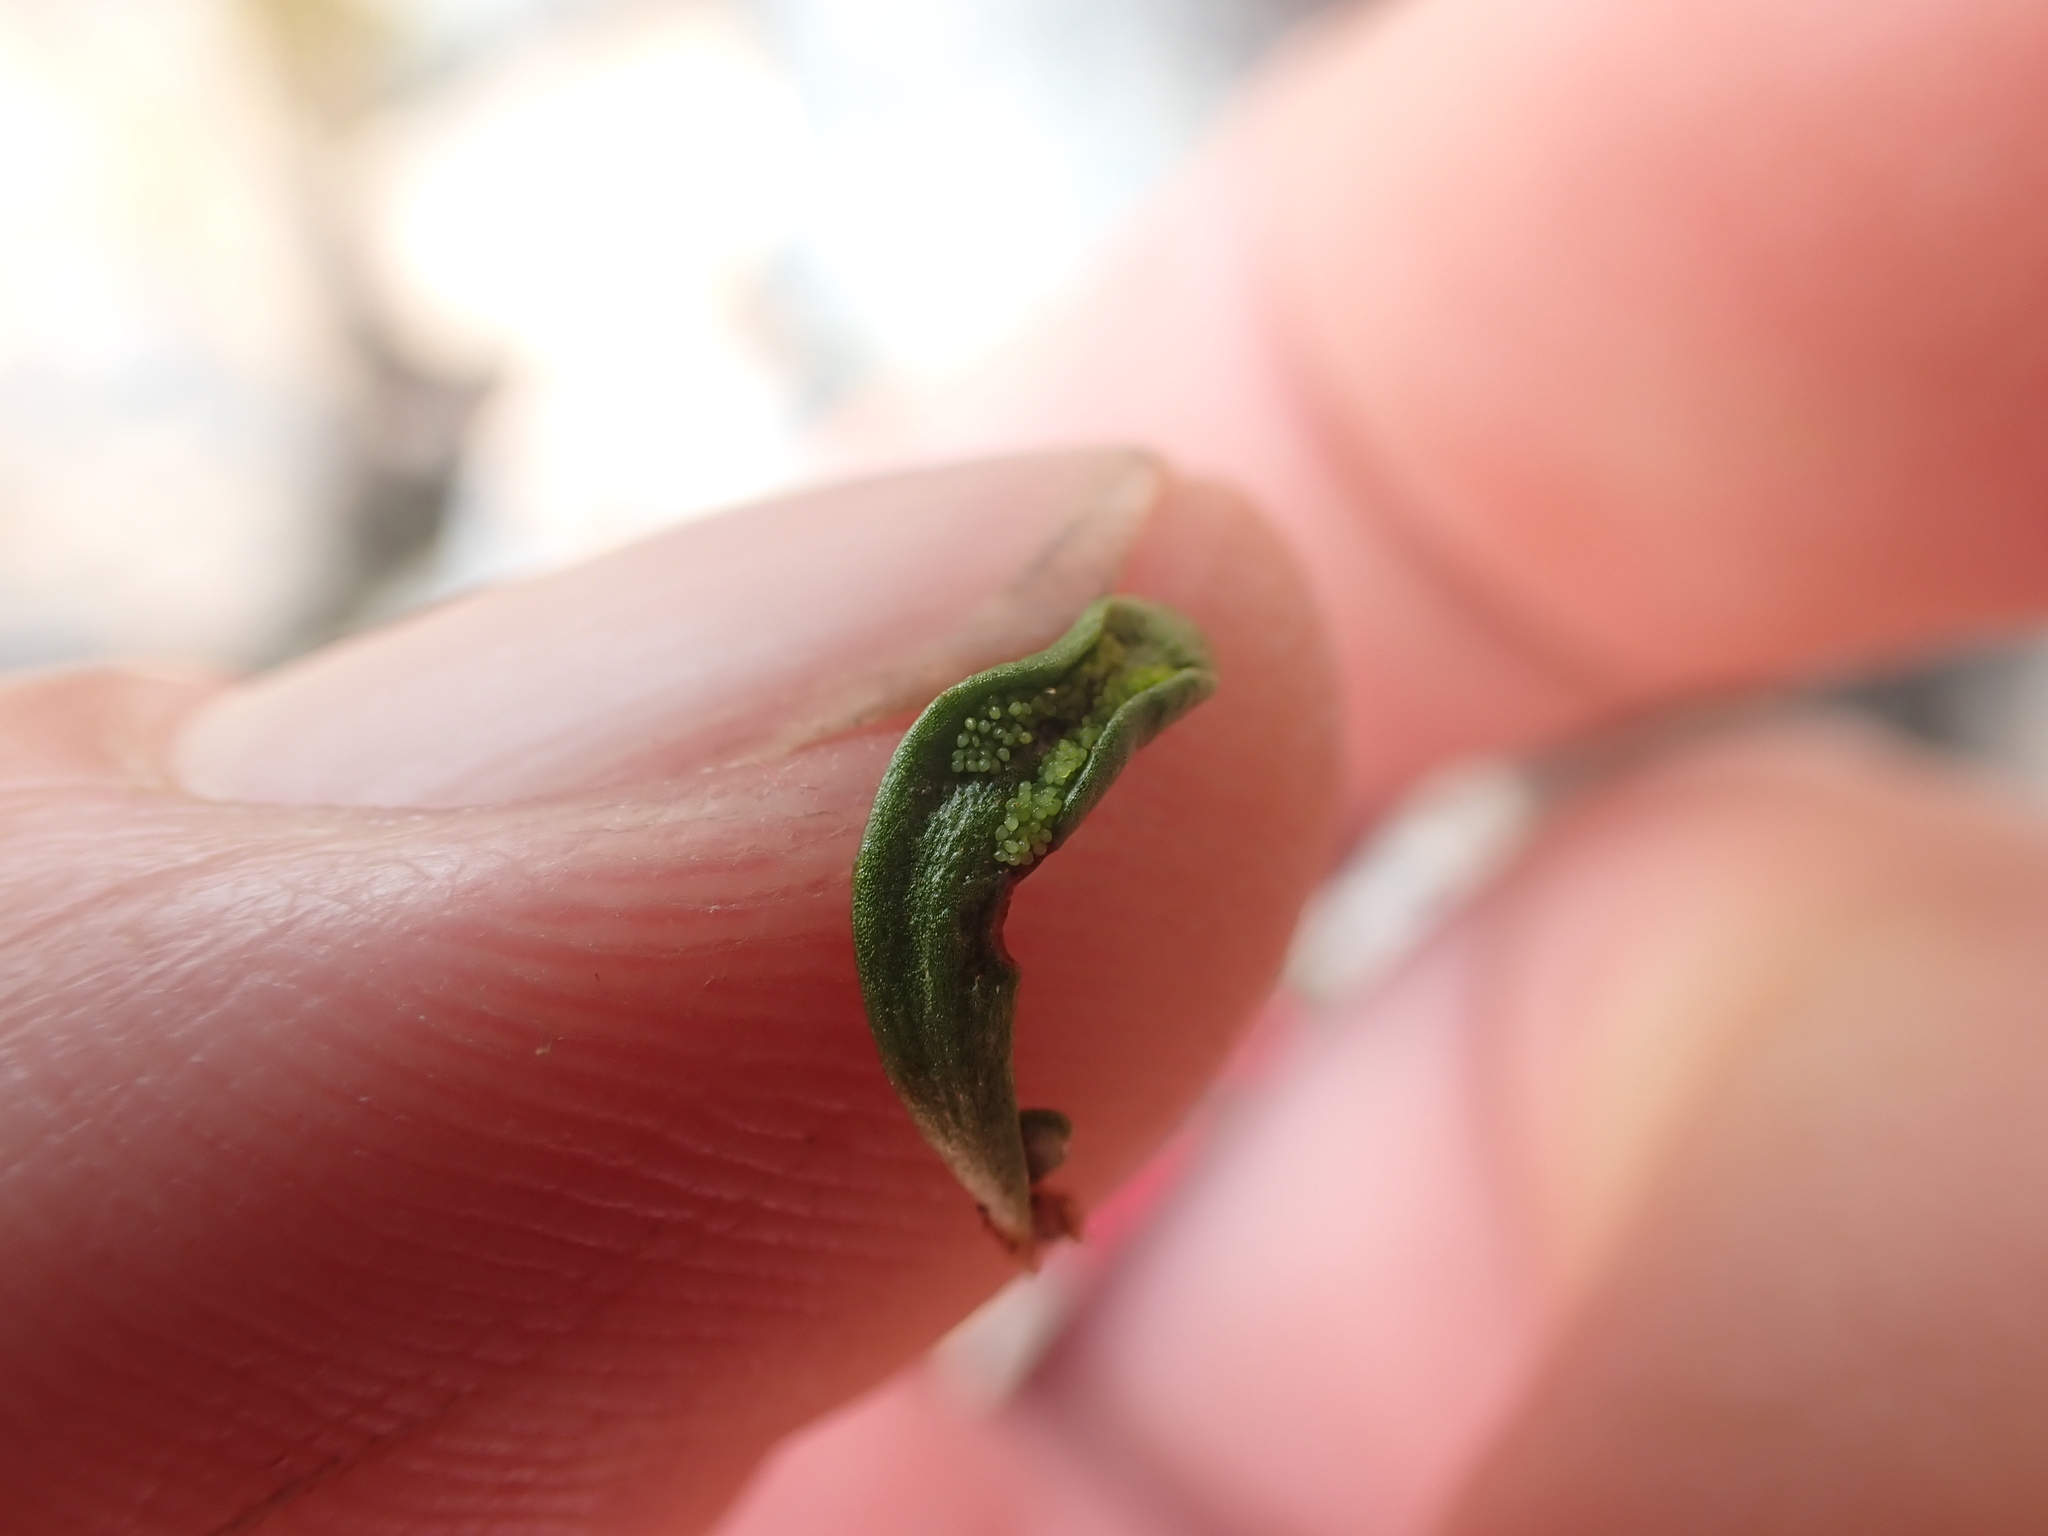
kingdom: Plantae
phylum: Tracheophyta
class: Polypodiopsida
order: Polypodiales
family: Polypodiaceae
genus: Notogrammitis
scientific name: Notogrammitis crassior
